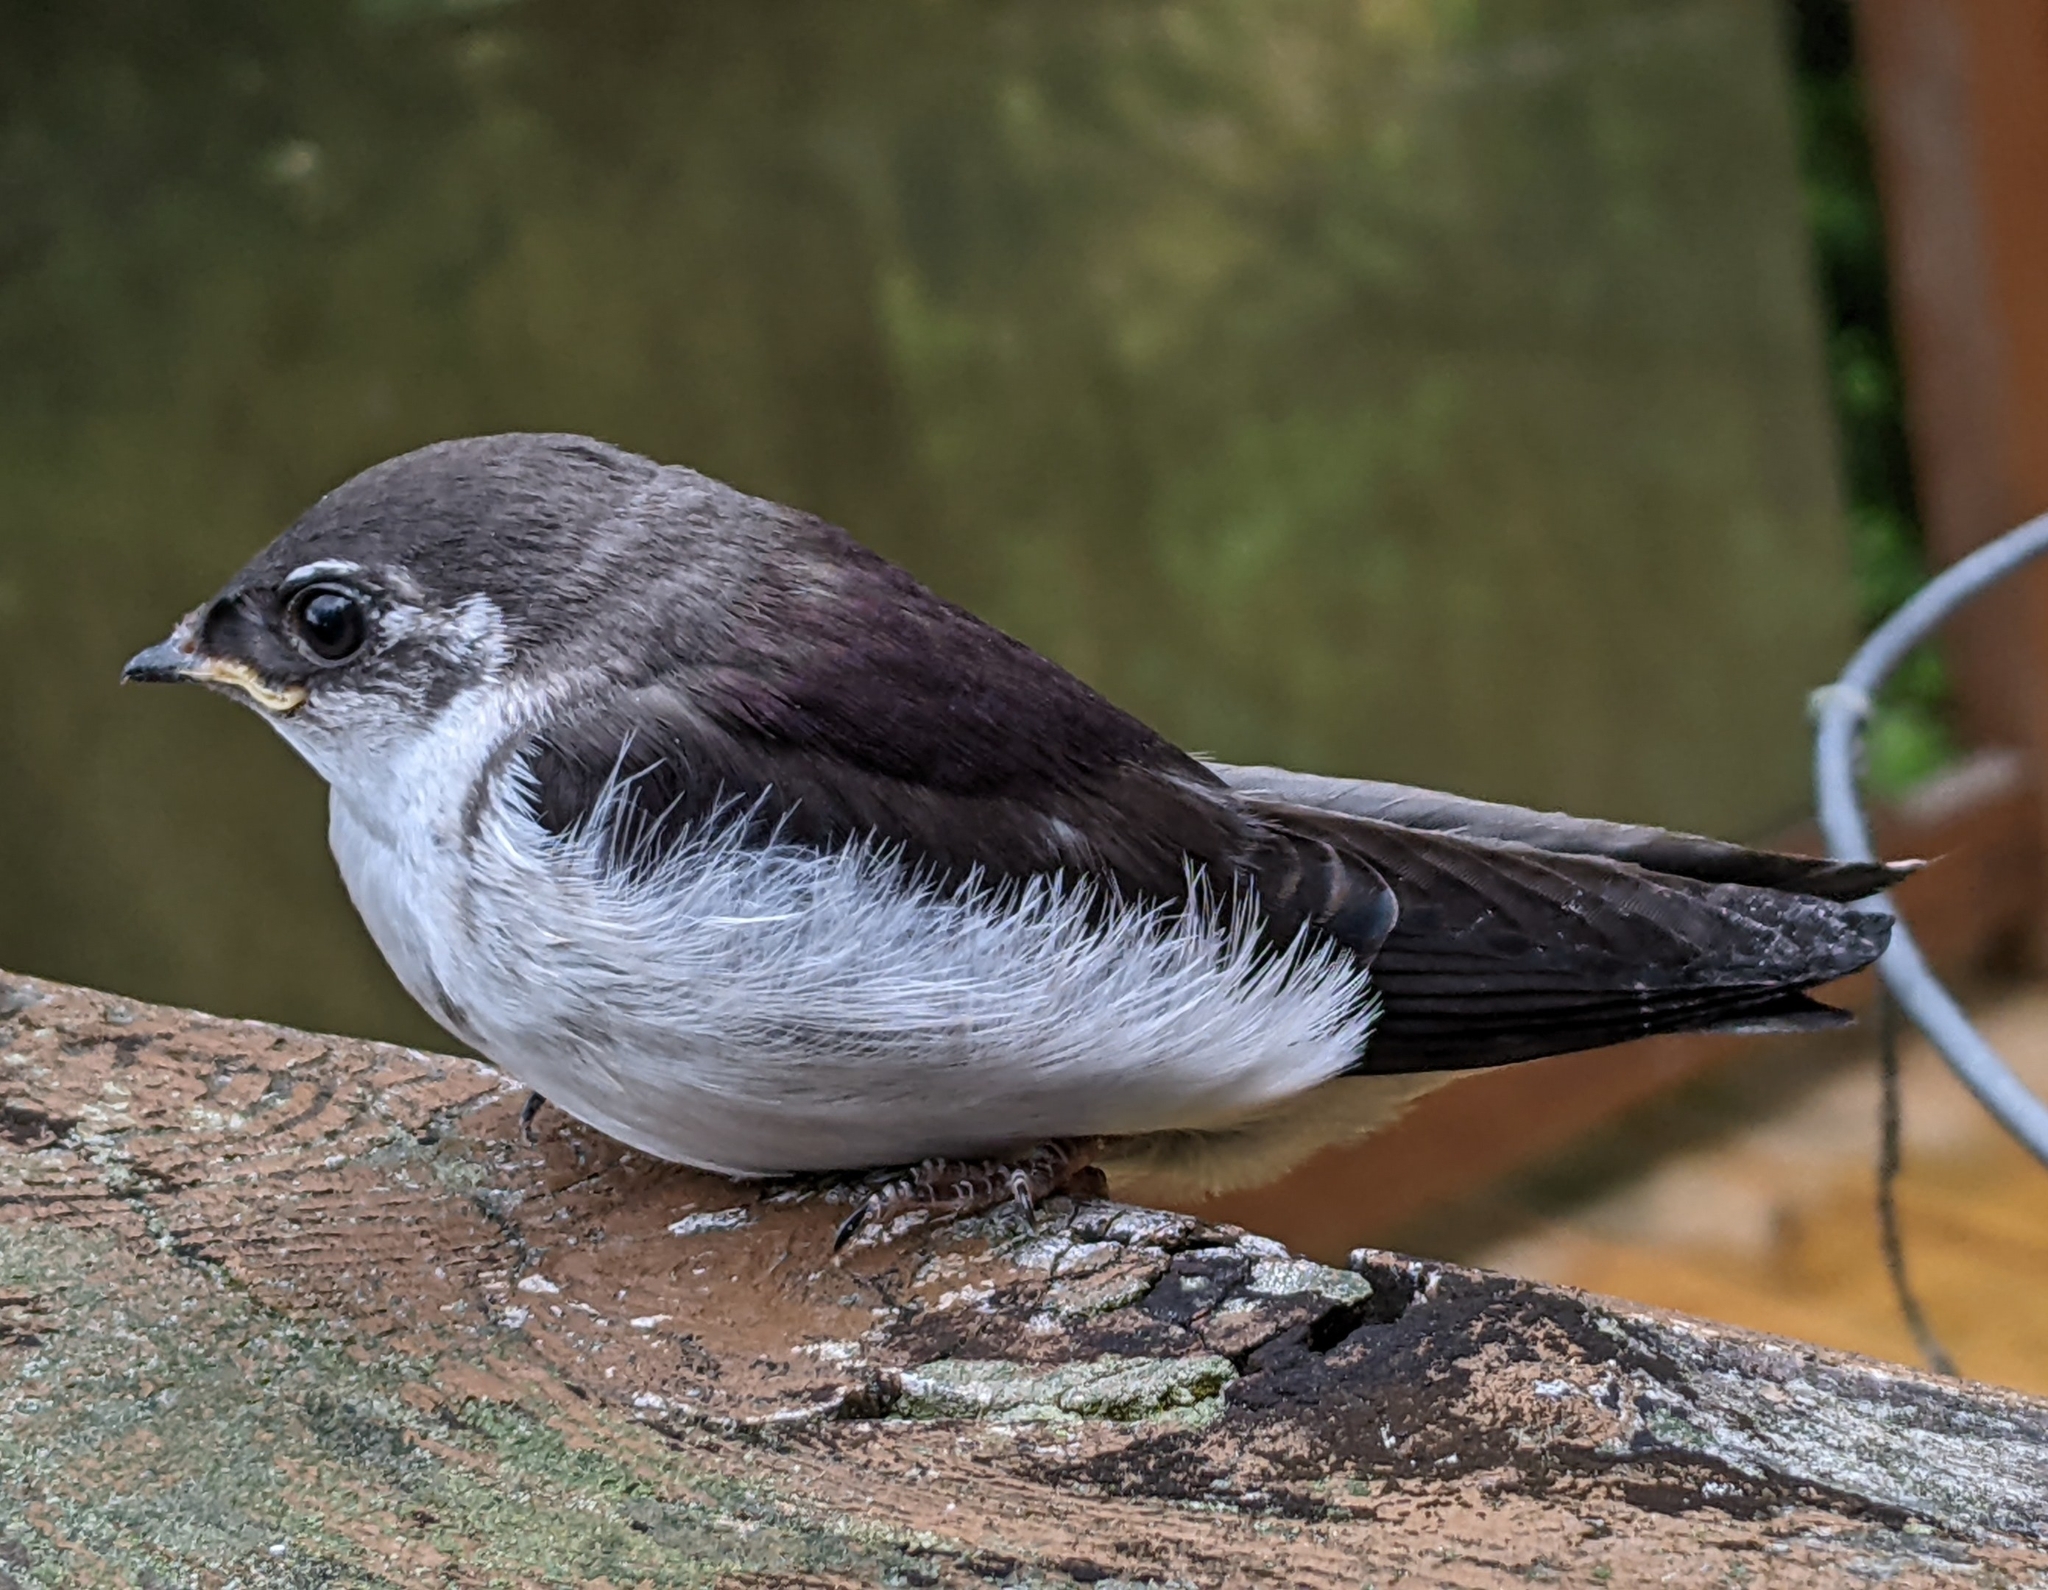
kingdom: Animalia
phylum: Chordata
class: Aves
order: Passeriformes
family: Hirundinidae
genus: Tachycineta
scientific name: Tachycineta thalassina
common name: Violet-green swallow
